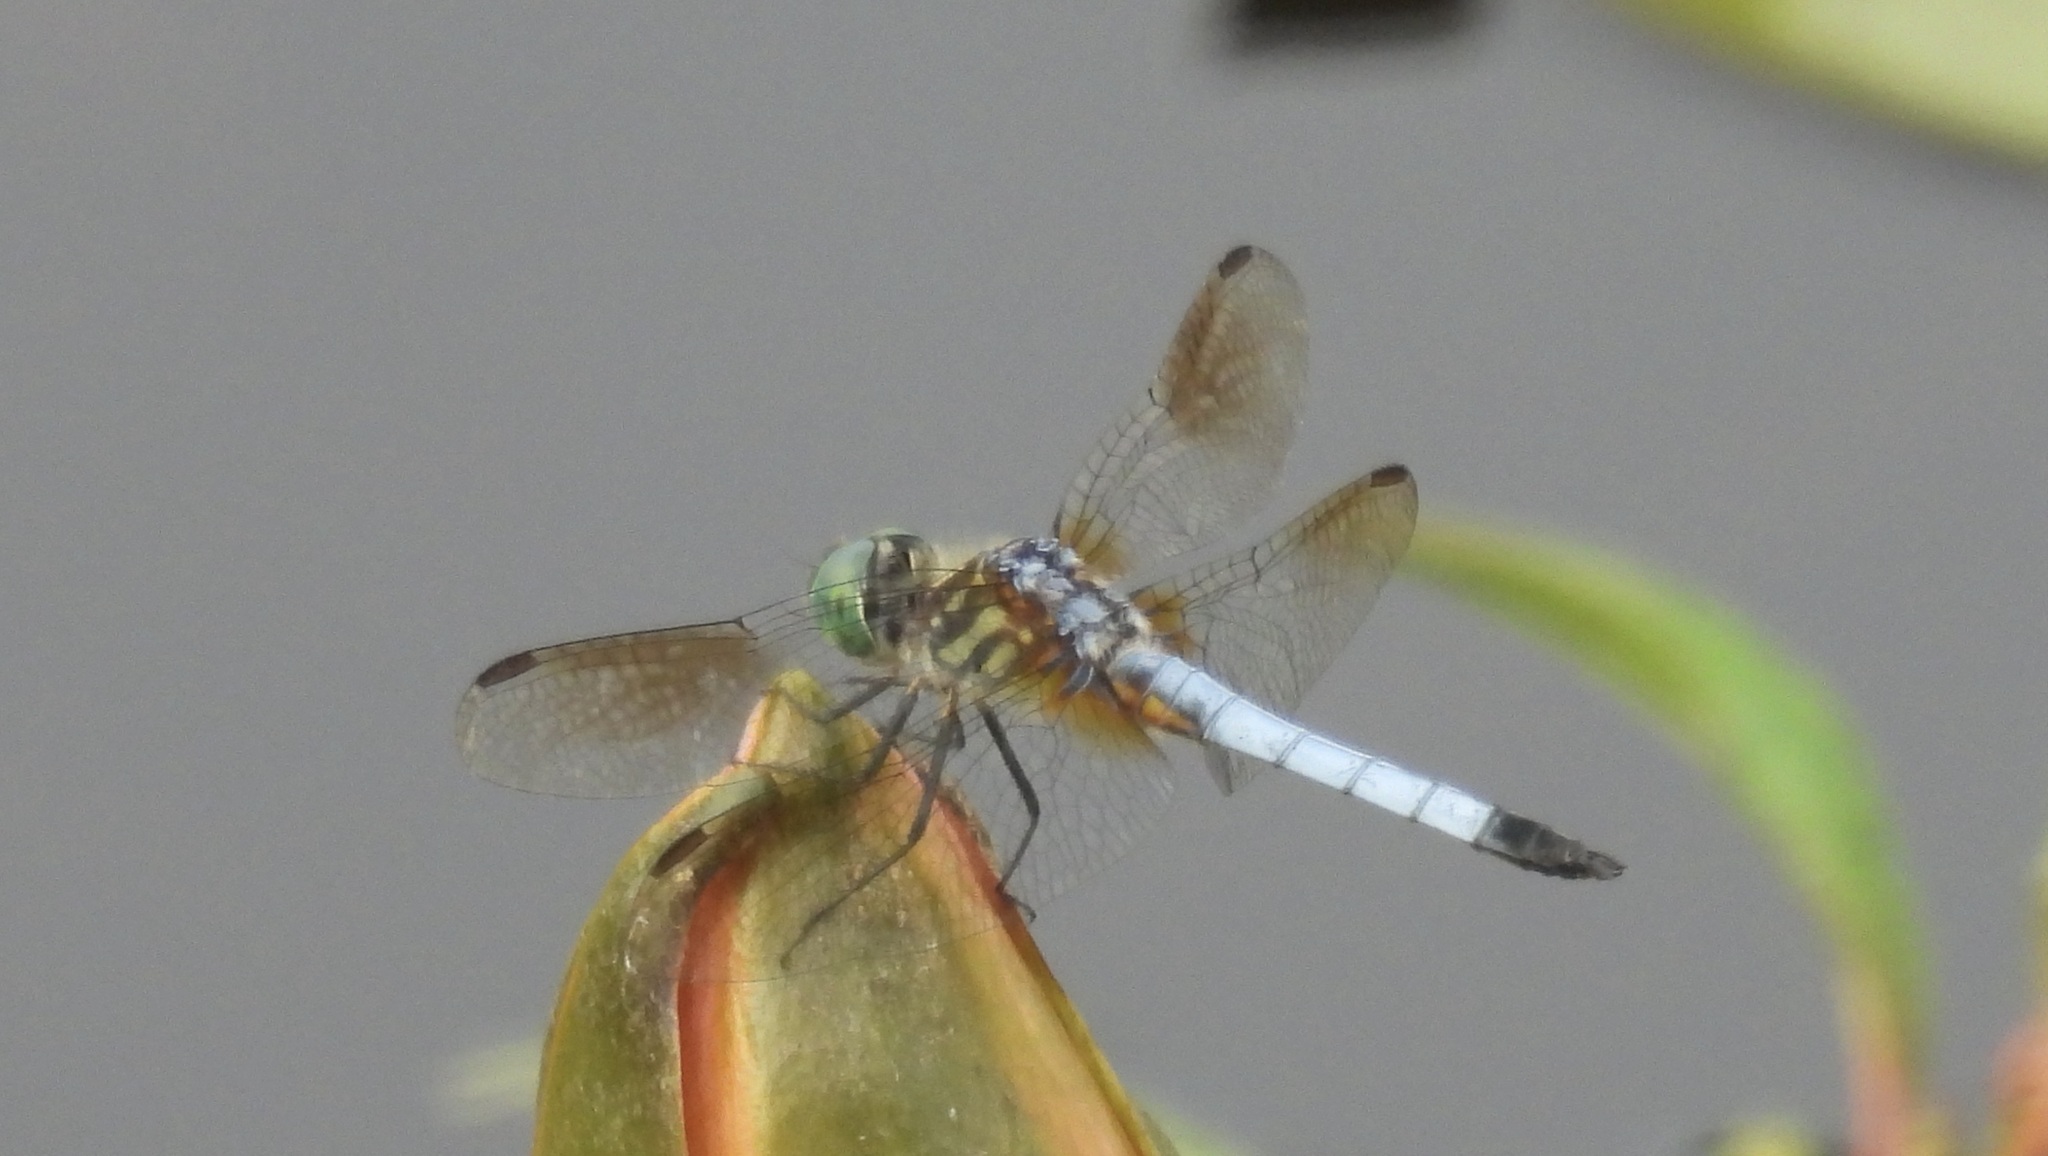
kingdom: Animalia
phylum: Arthropoda
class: Insecta
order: Odonata
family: Libellulidae
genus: Pachydiplax
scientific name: Pachydiplax longipennis
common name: Blue dasher
